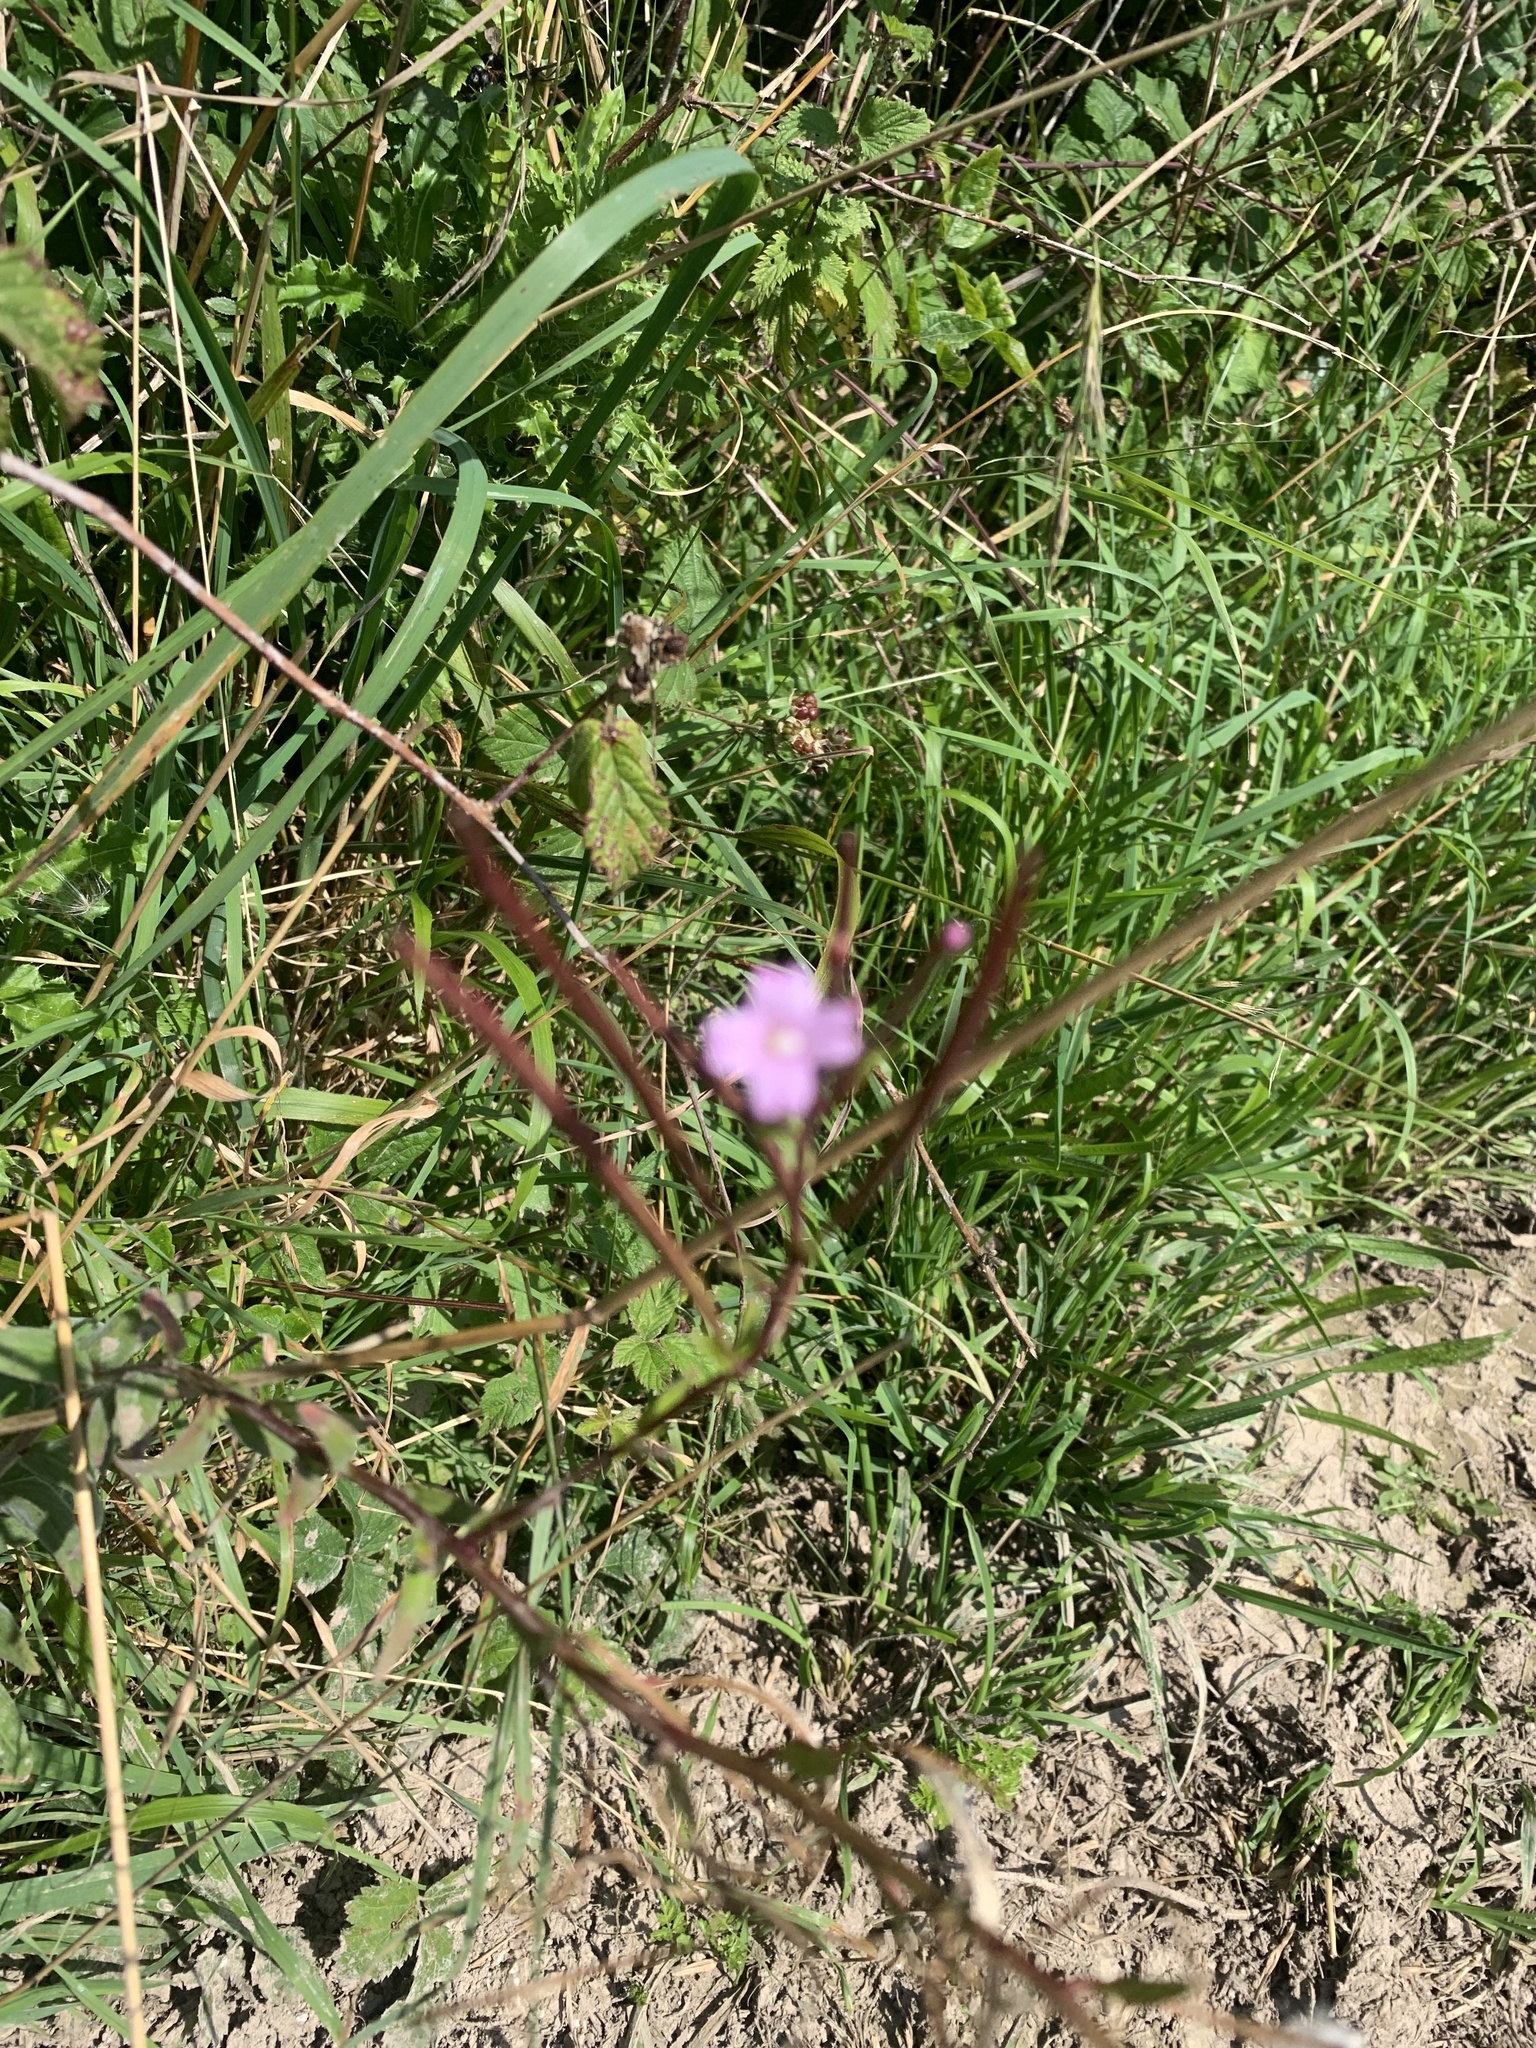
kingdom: Plantae
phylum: Tracheophyta
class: Magnoliopsida
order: Myrtales
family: Onagraceae
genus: Epilobium
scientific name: Epilobium parviflorum
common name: Hoary willowherb
